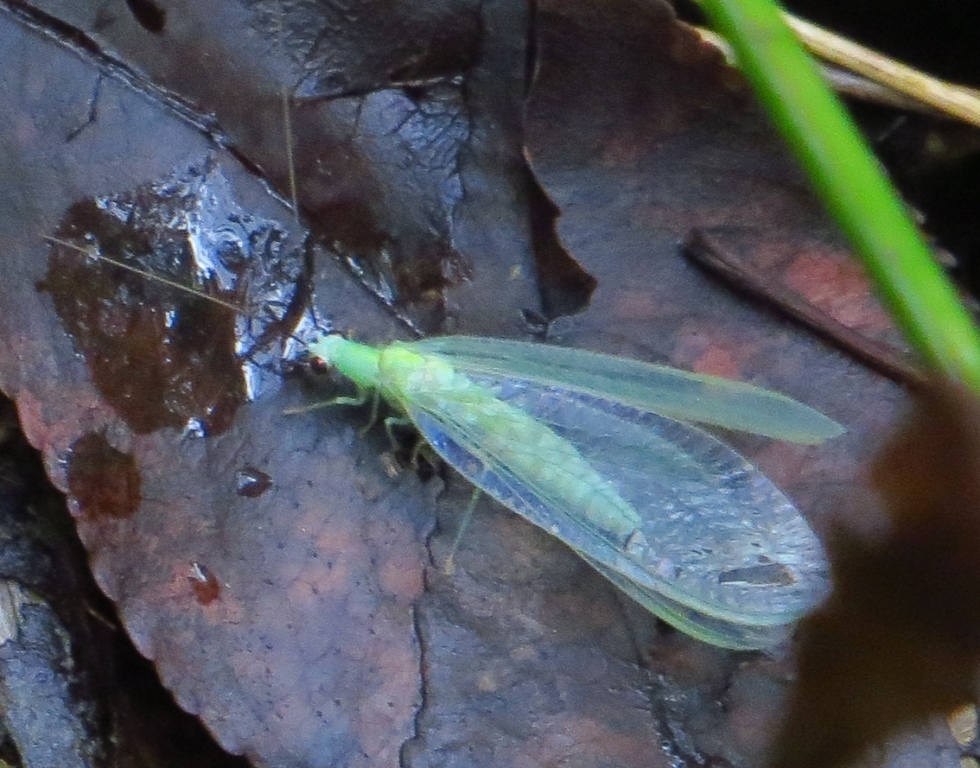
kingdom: Animalia
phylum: Arthropoda
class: Insecta
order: Neuroptera
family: Chrysopidae
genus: Chrysopa
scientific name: Chrysopa nigricornis
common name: Black-horned green lacewing
